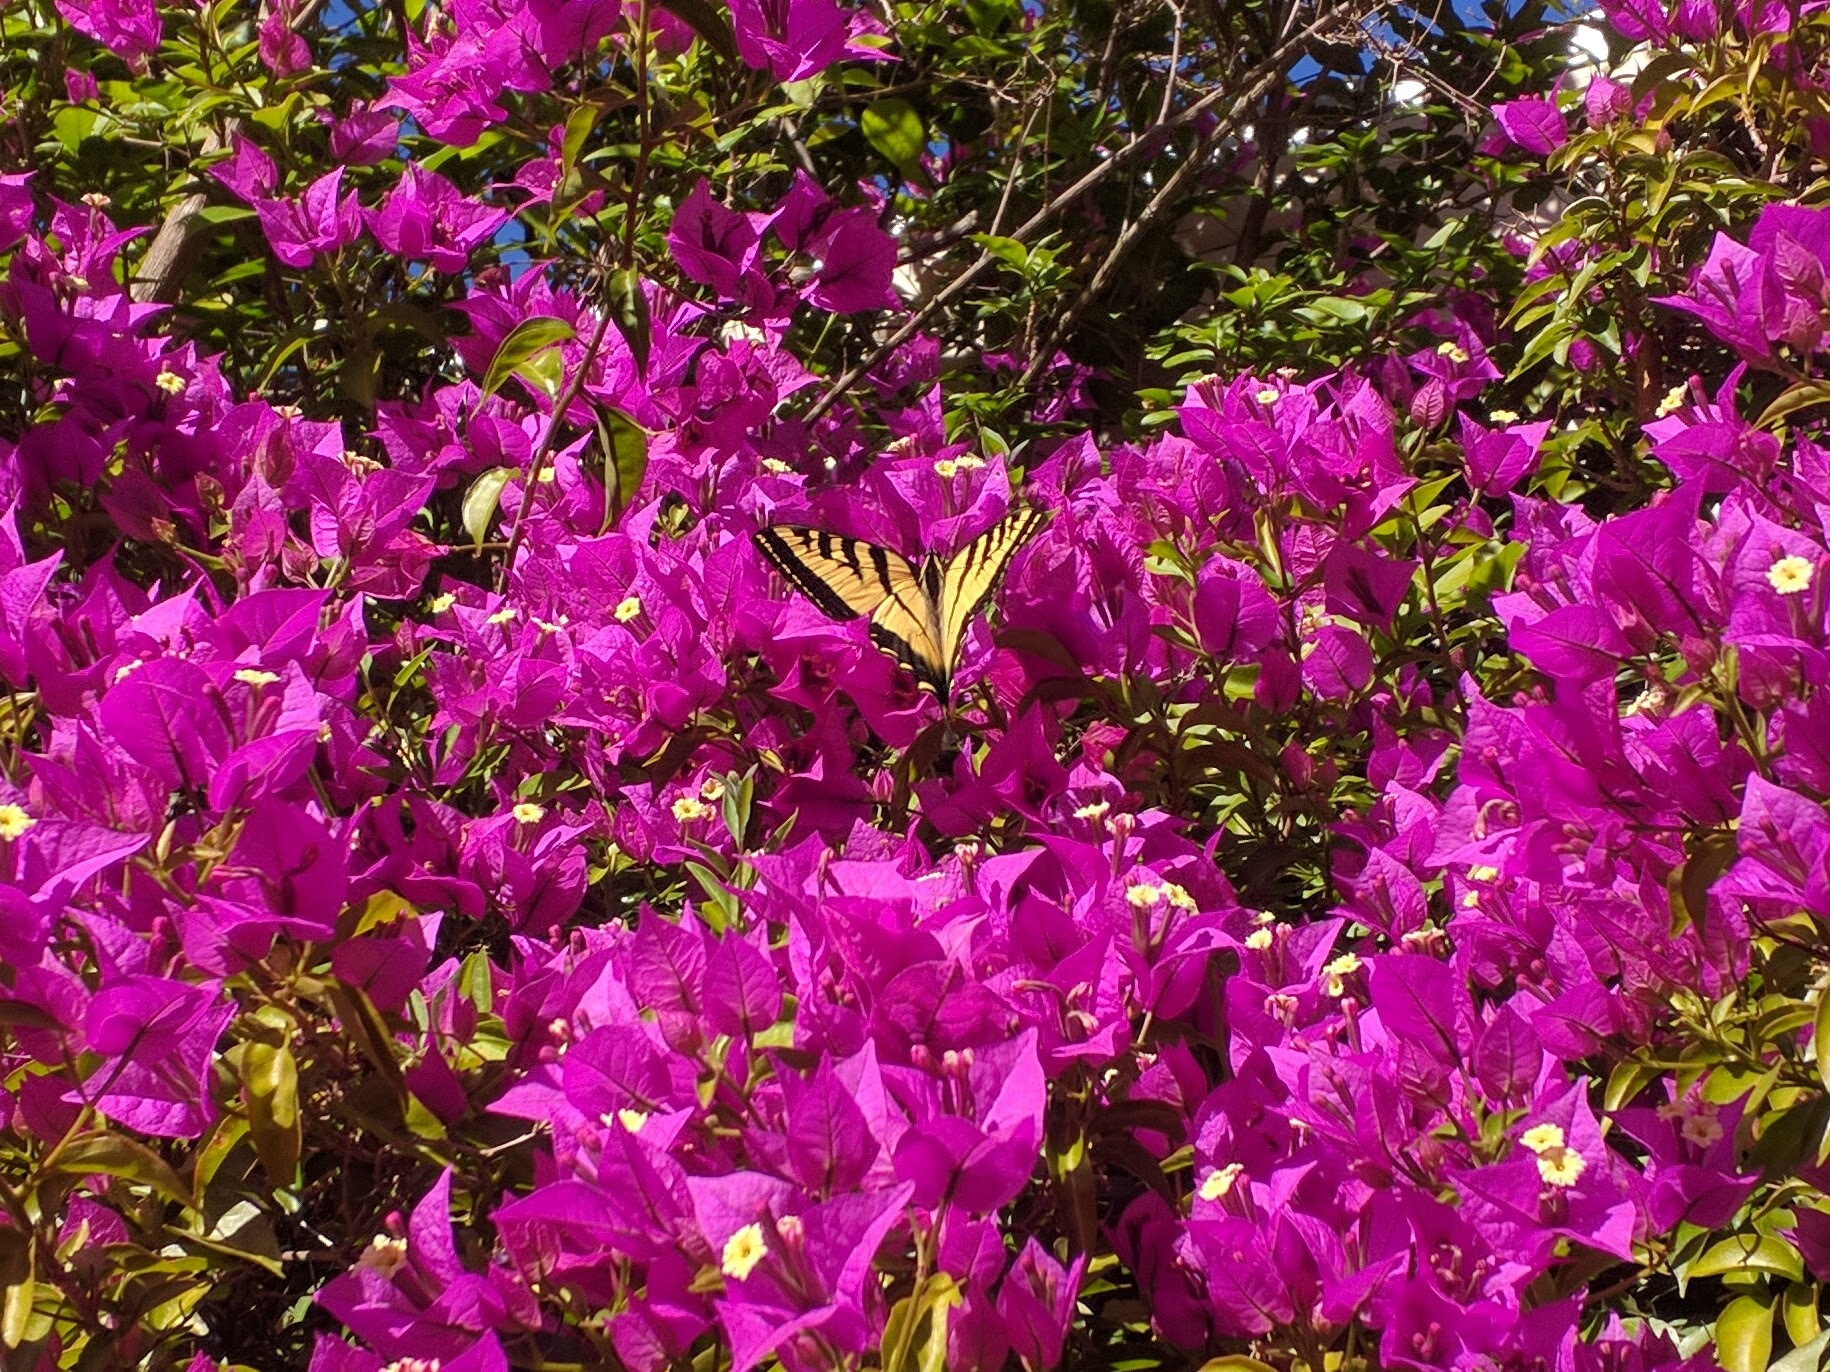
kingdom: Animalia
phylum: Arthropoda
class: Insecta
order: Lepidoptera
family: Papilionidae
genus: Papilio
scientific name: Papilio rutulus
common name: Western tiger swallowtail
